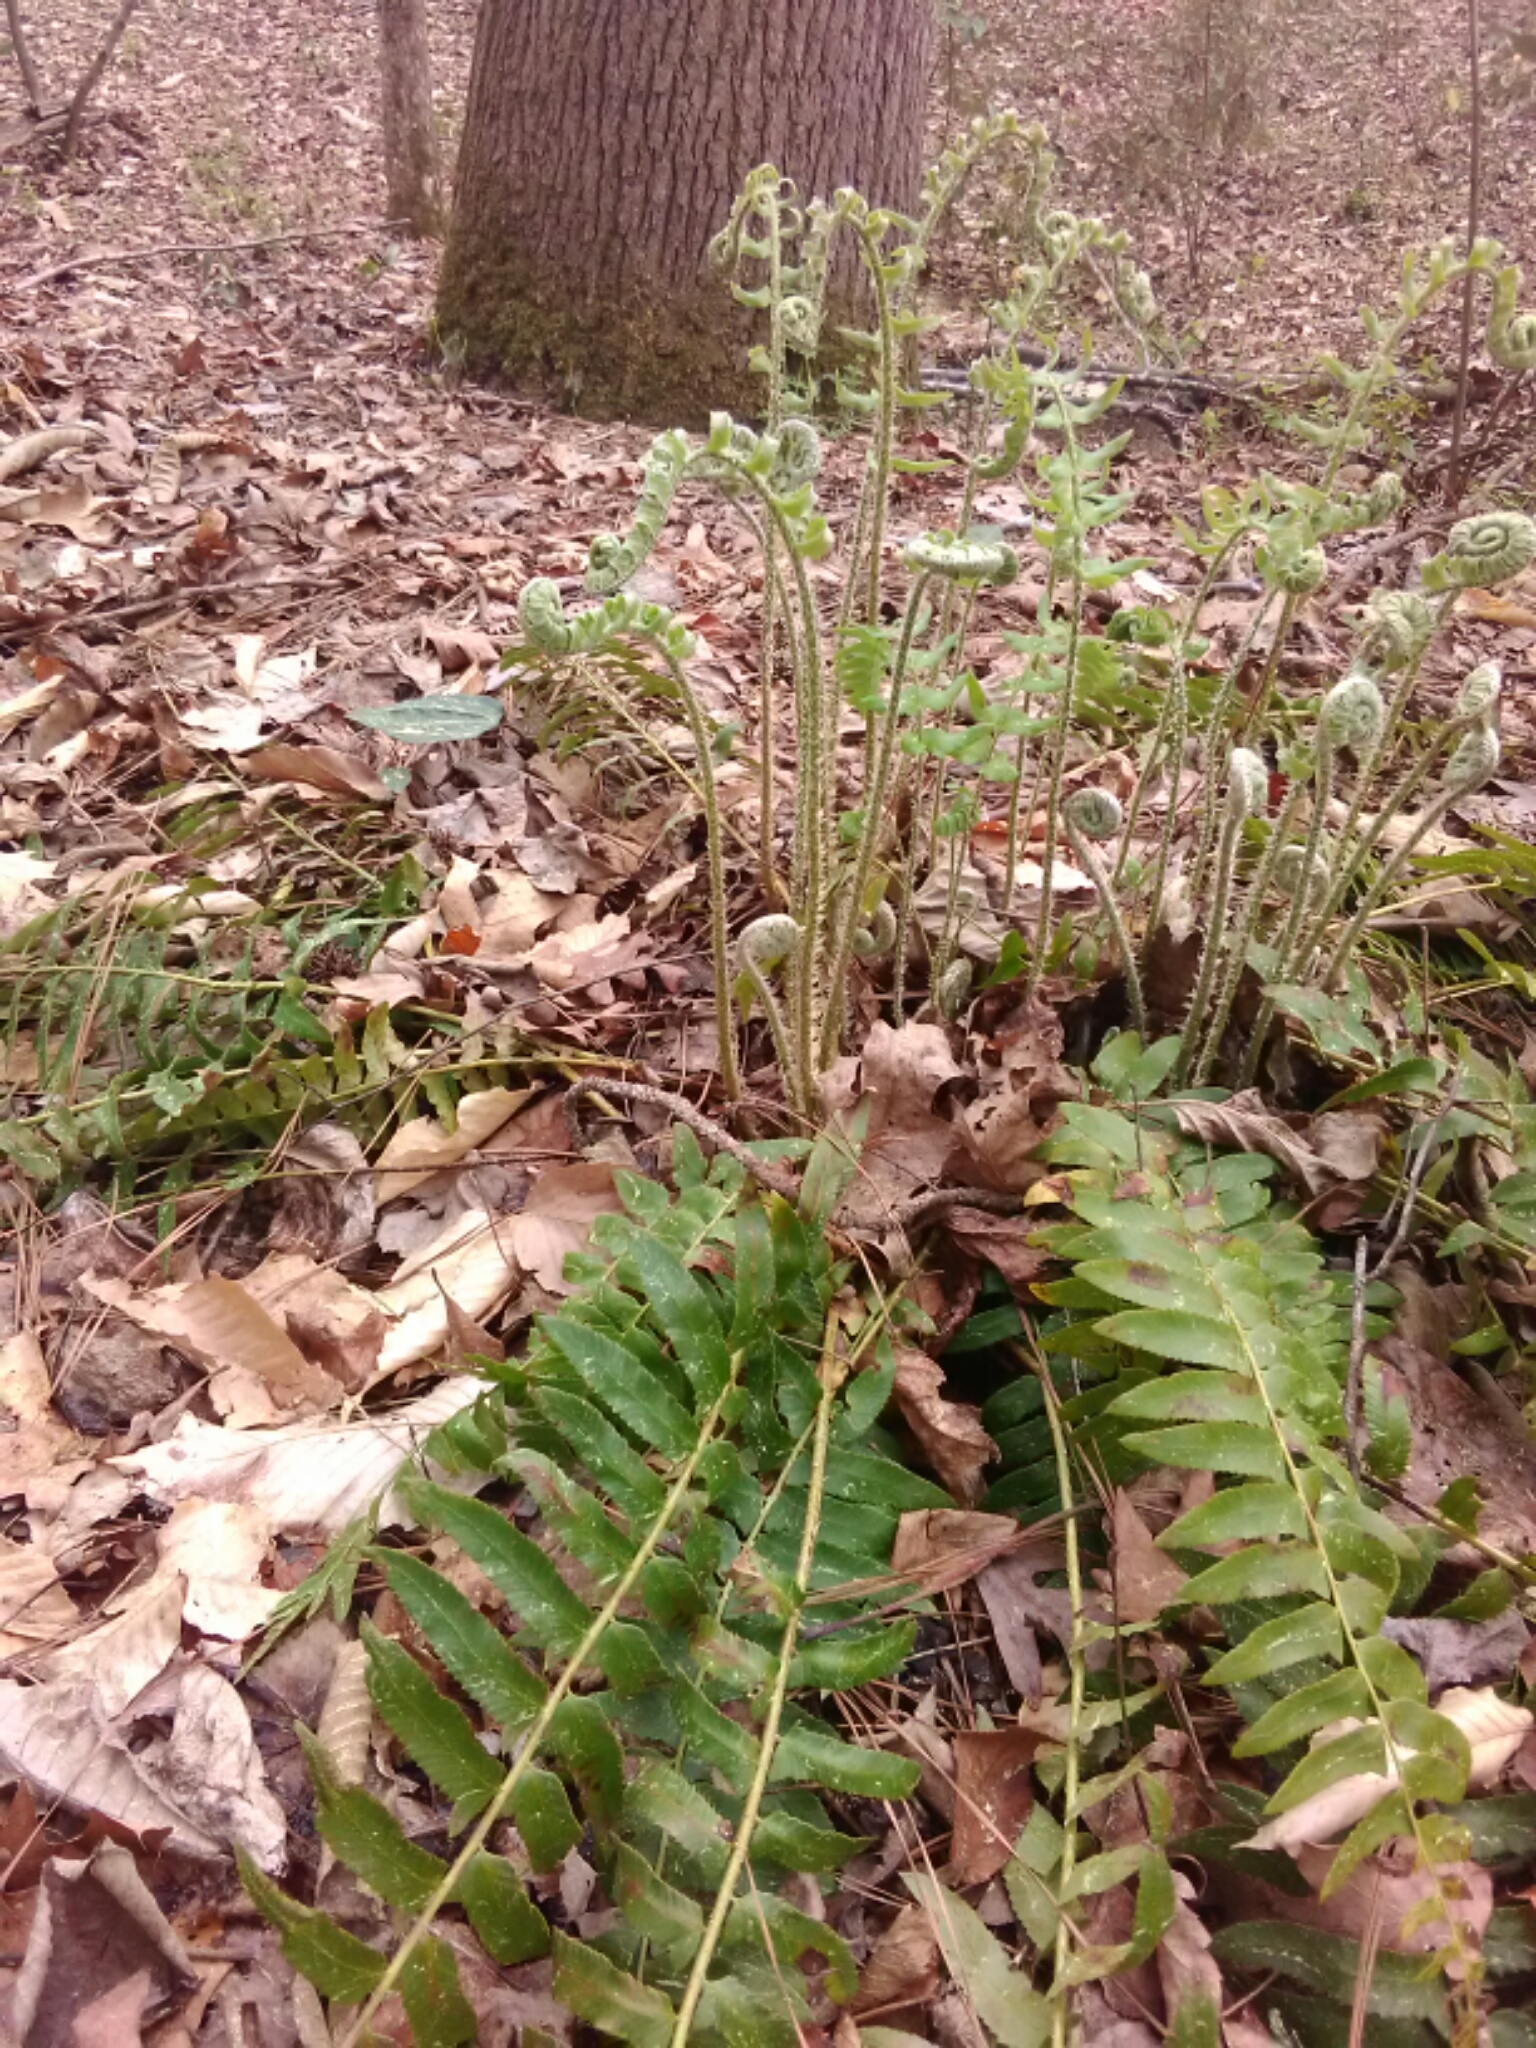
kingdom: Plantae
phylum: Tracheophyta
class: Polypodiopsida
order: Polypodiales
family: Dryopteridaceae
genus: Polystichum
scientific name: Polystichum acrostichoides
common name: Christmas fern
